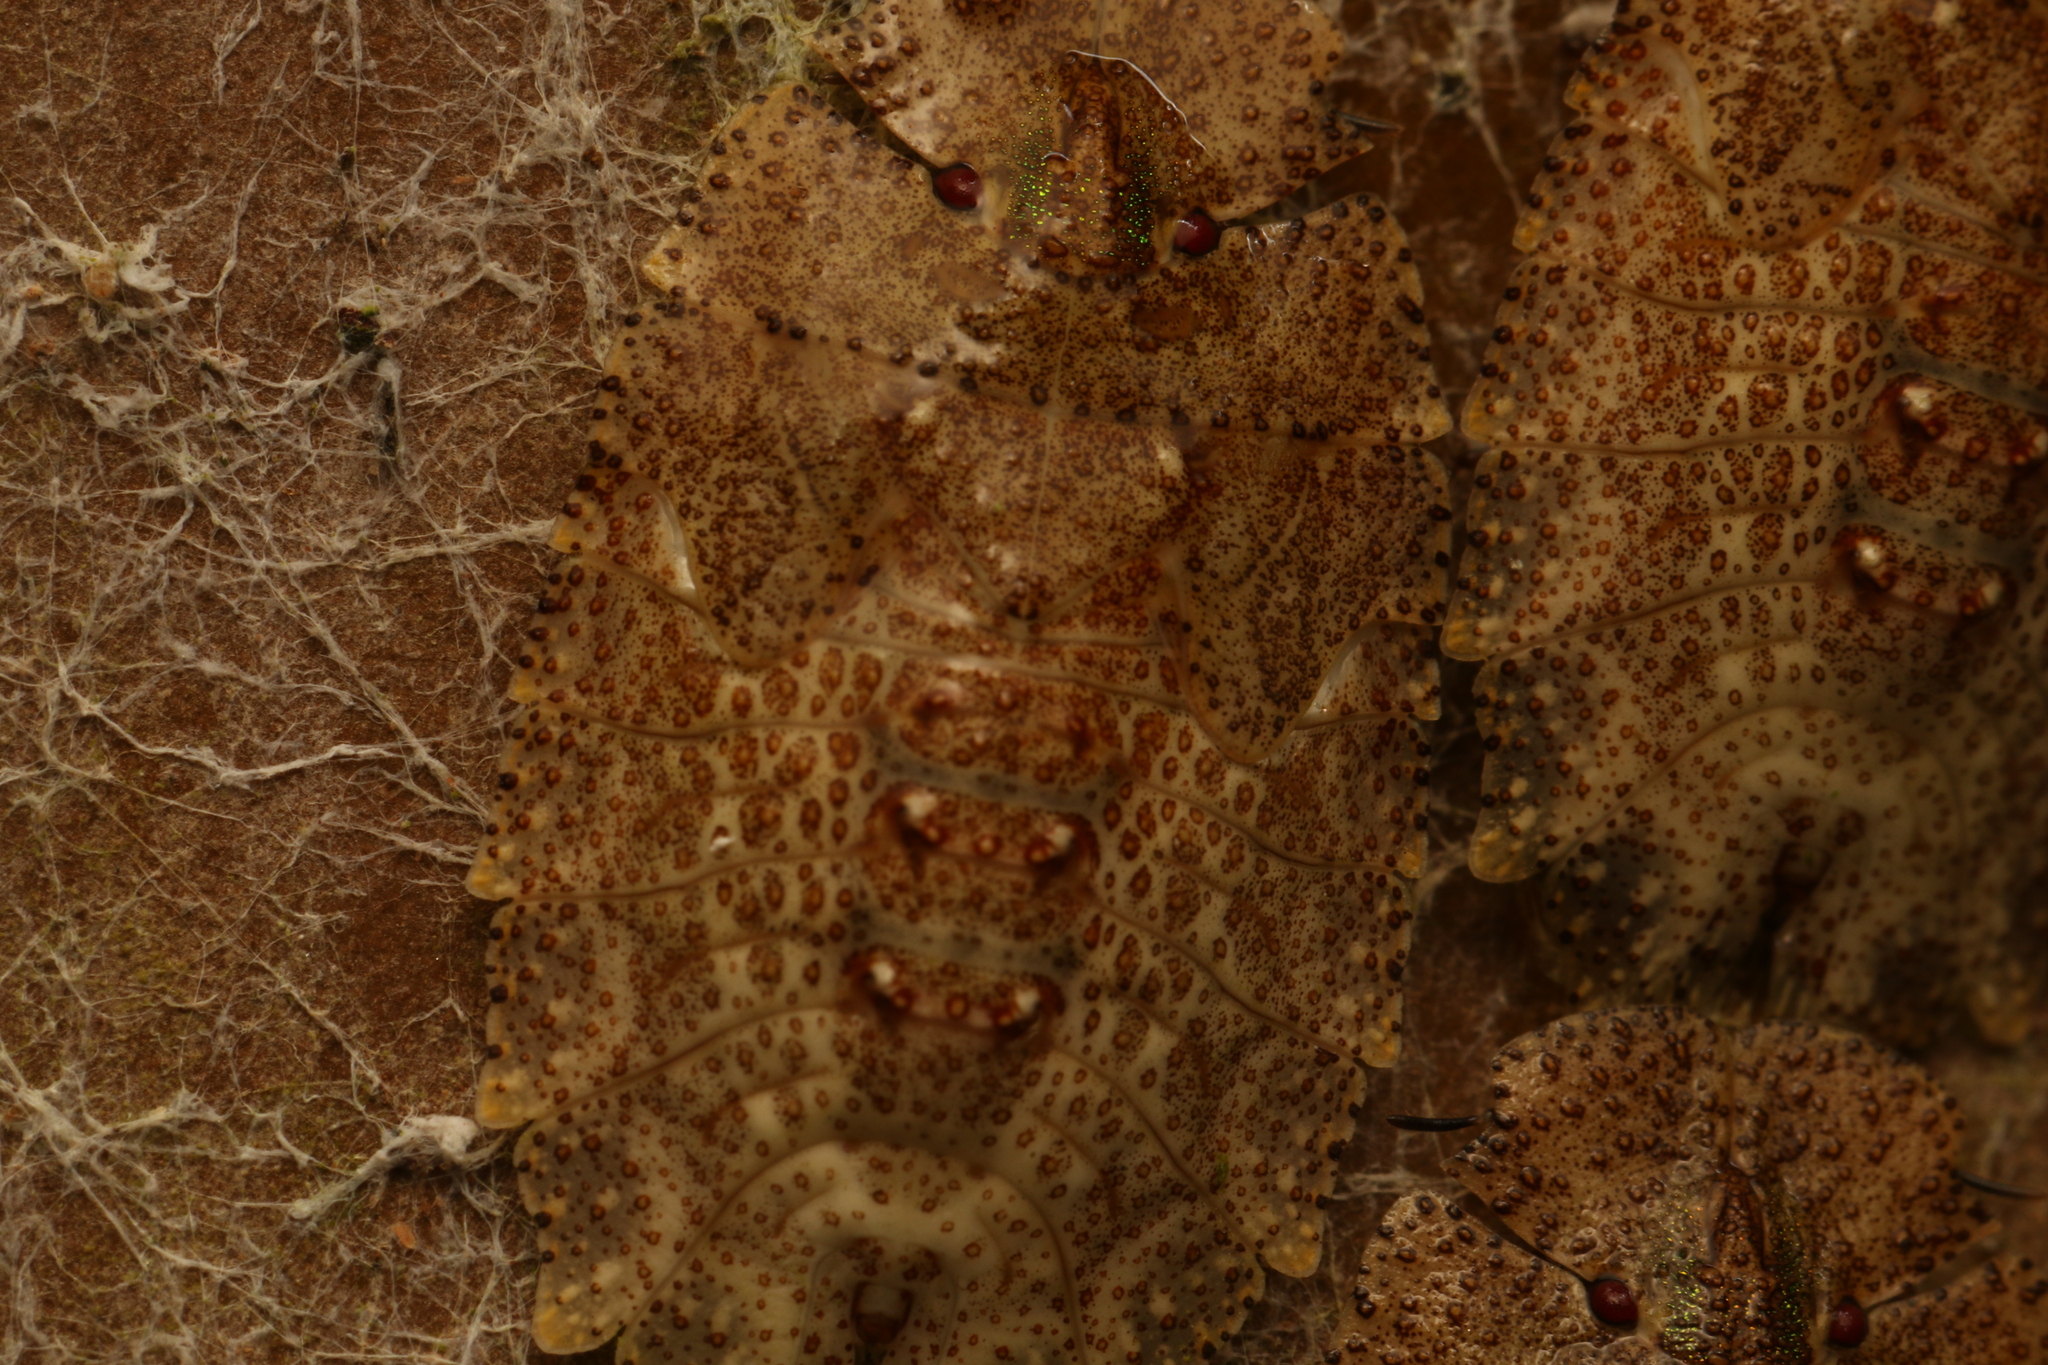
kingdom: Animalia
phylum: Arthropoda
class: Insecta
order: Hemiptera
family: Phleides
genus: Phloea
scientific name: Phloea
